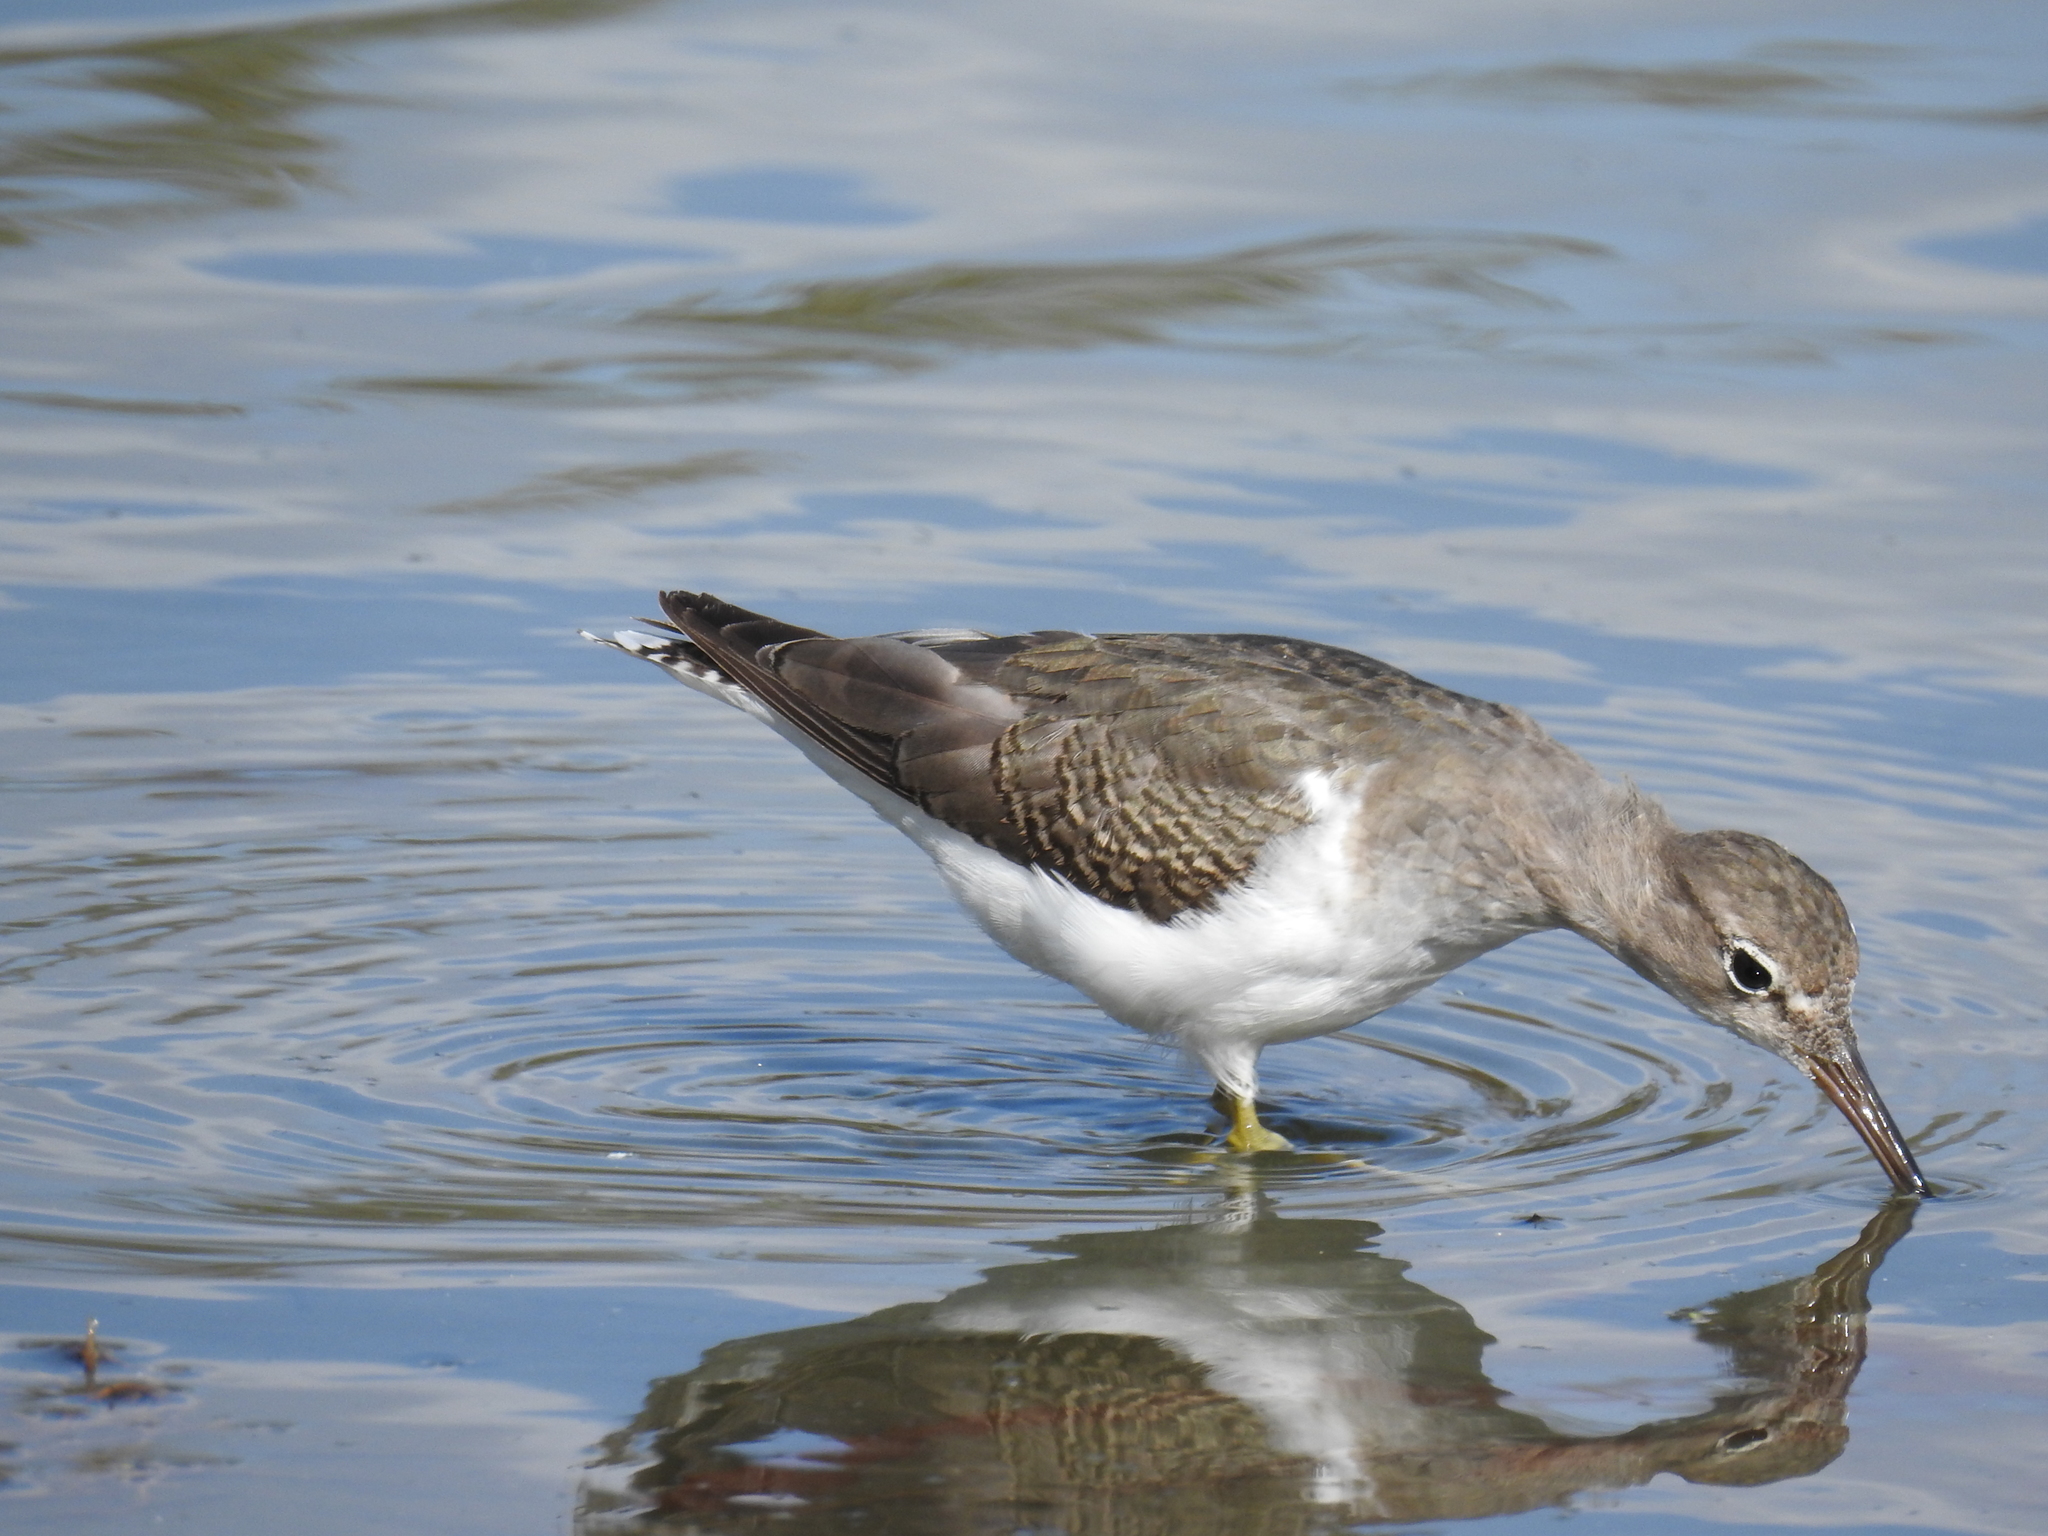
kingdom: Animalia
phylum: Chordata
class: Aves
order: Charadriiformes
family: Scolopacidae
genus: Actitis
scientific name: Actitis macularius
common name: Spotted sandpiper
